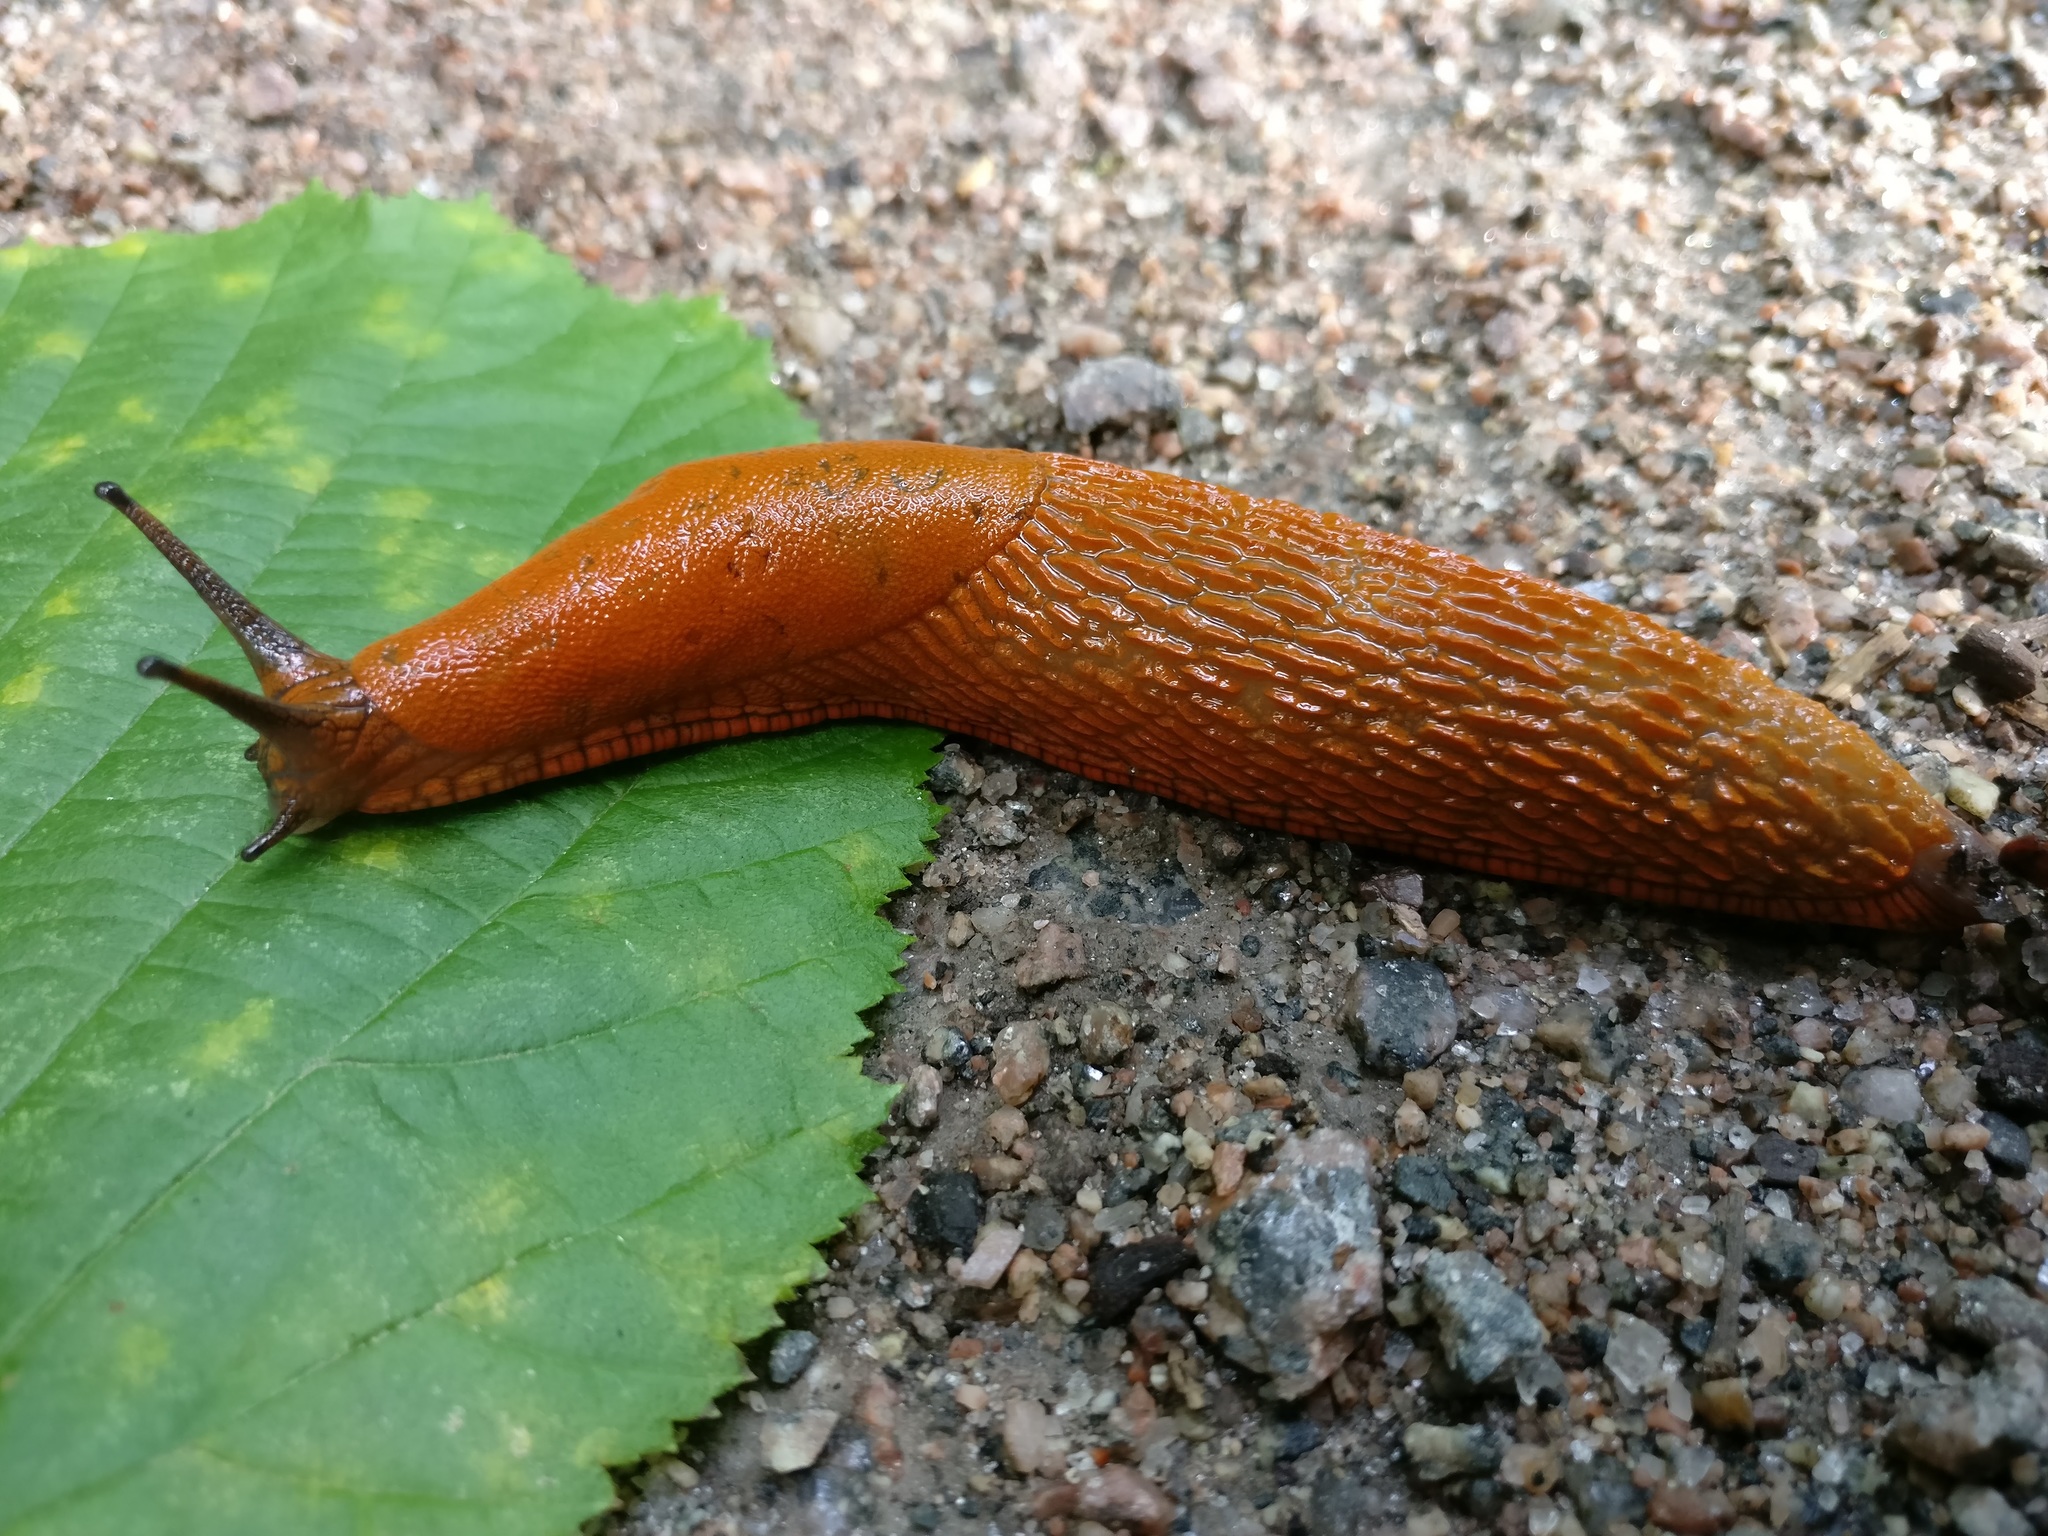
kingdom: Animalia
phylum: Mollusca
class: Gastropoda
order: Stylommatophora
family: Arionidae
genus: Arion
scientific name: Arion rufus
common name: Chocolate arion
